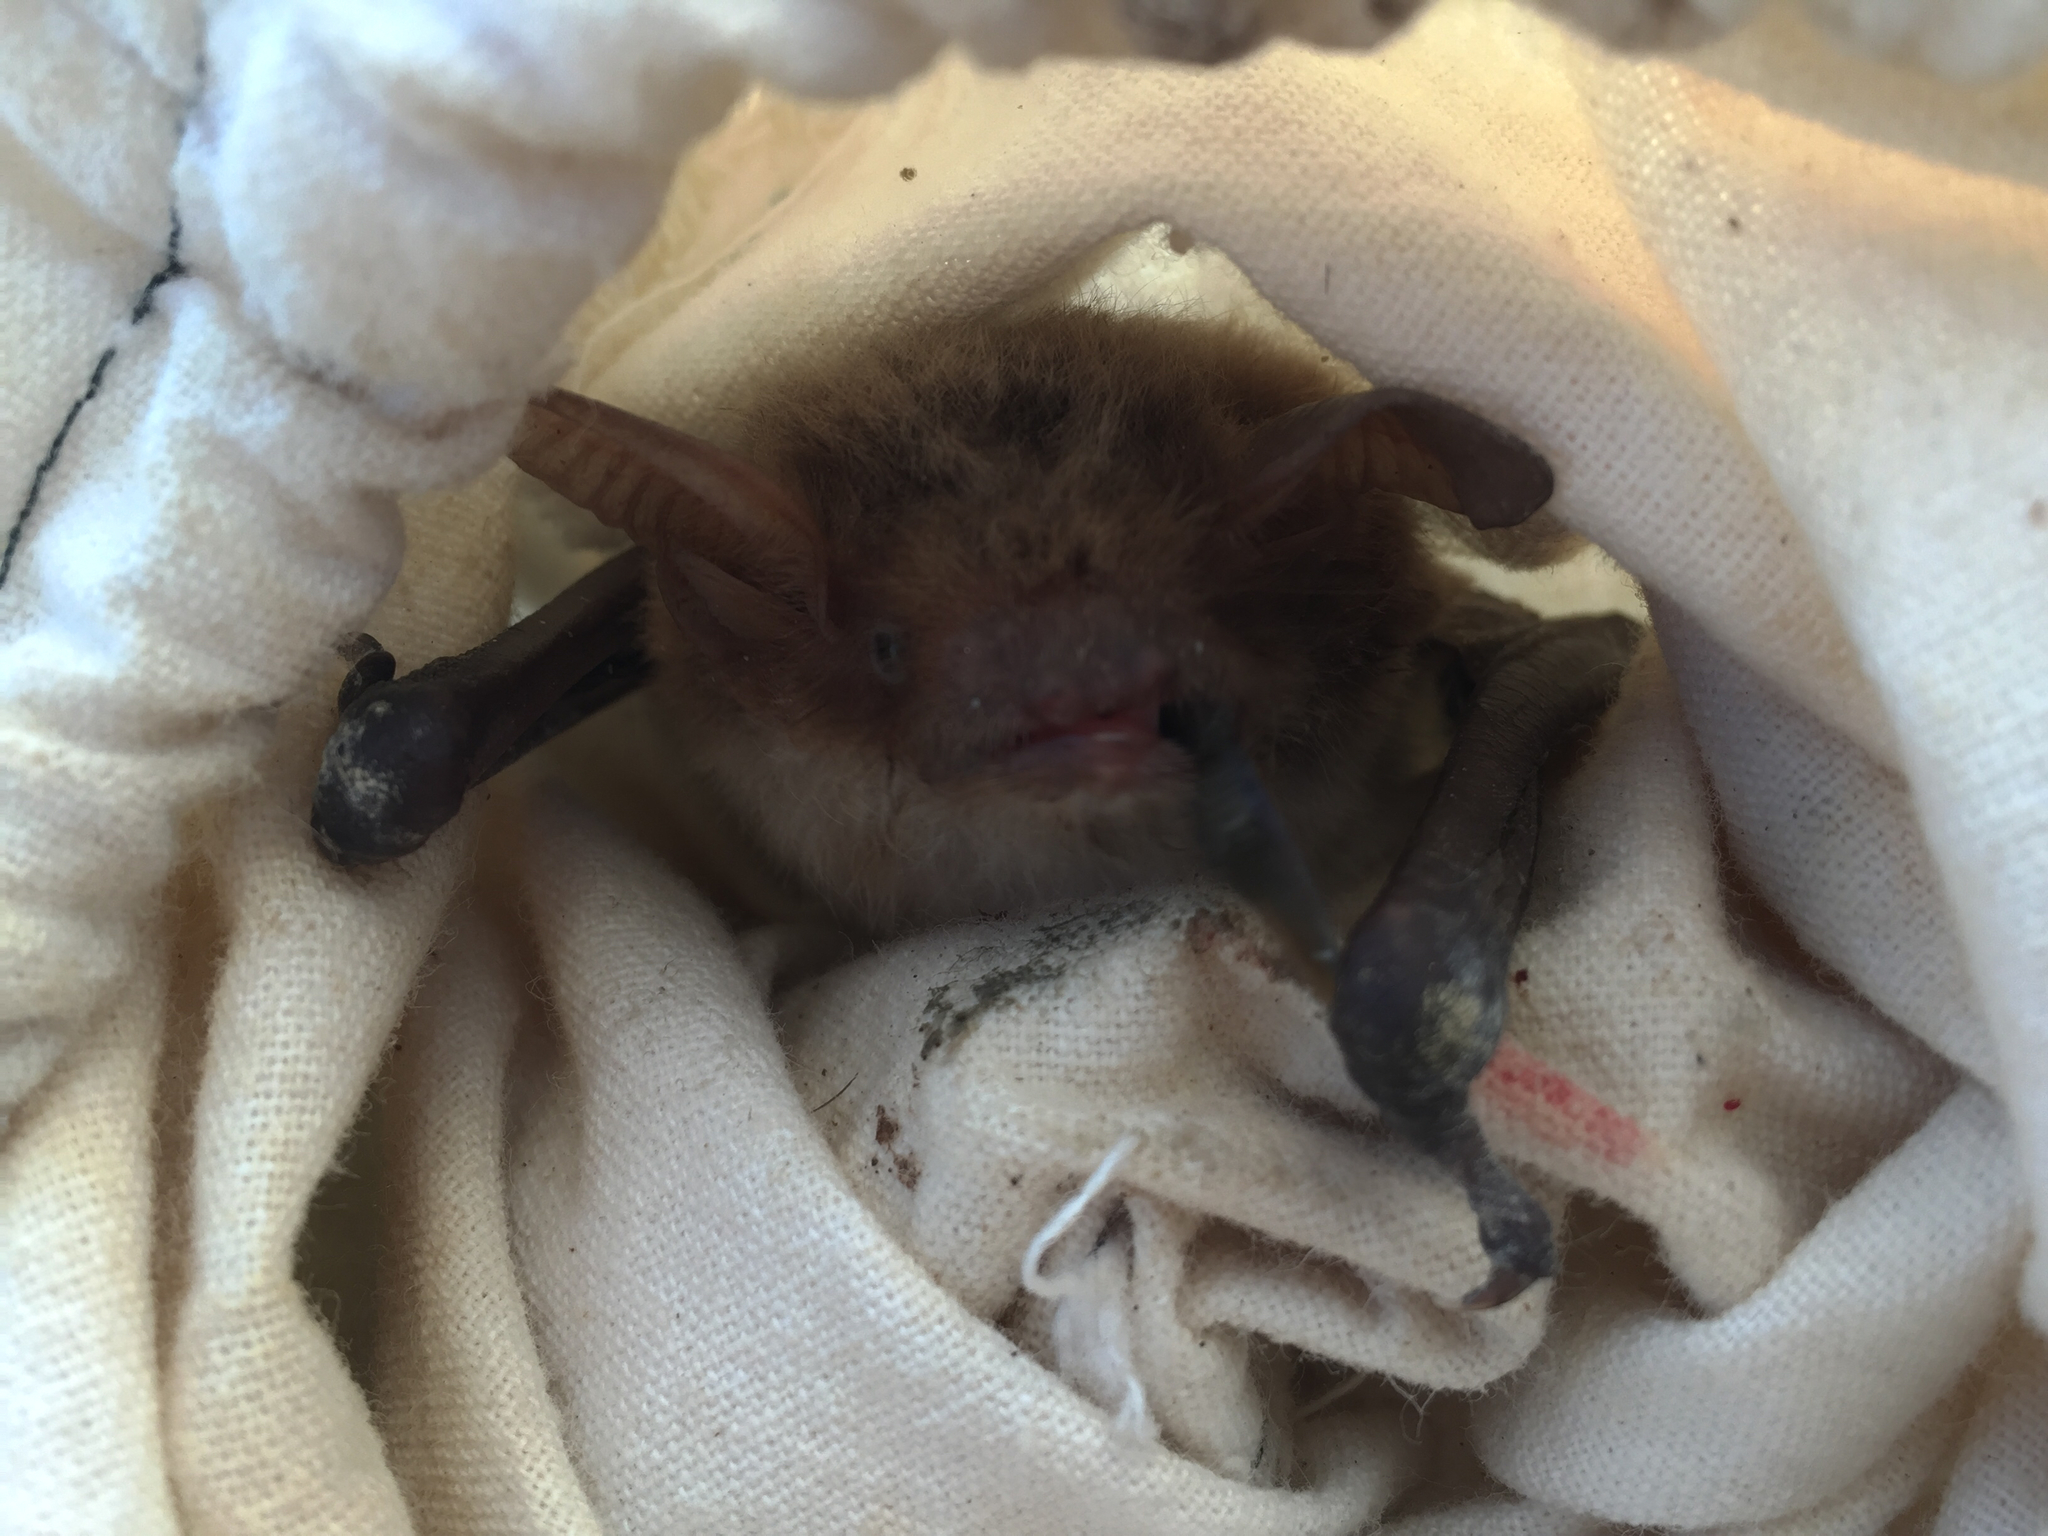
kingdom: Animalia
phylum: Chordata
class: Mammalia
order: Chiroptera
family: Vespertilionidae
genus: Myotis
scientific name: Myotis vivesi
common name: Fish-eating myotis
